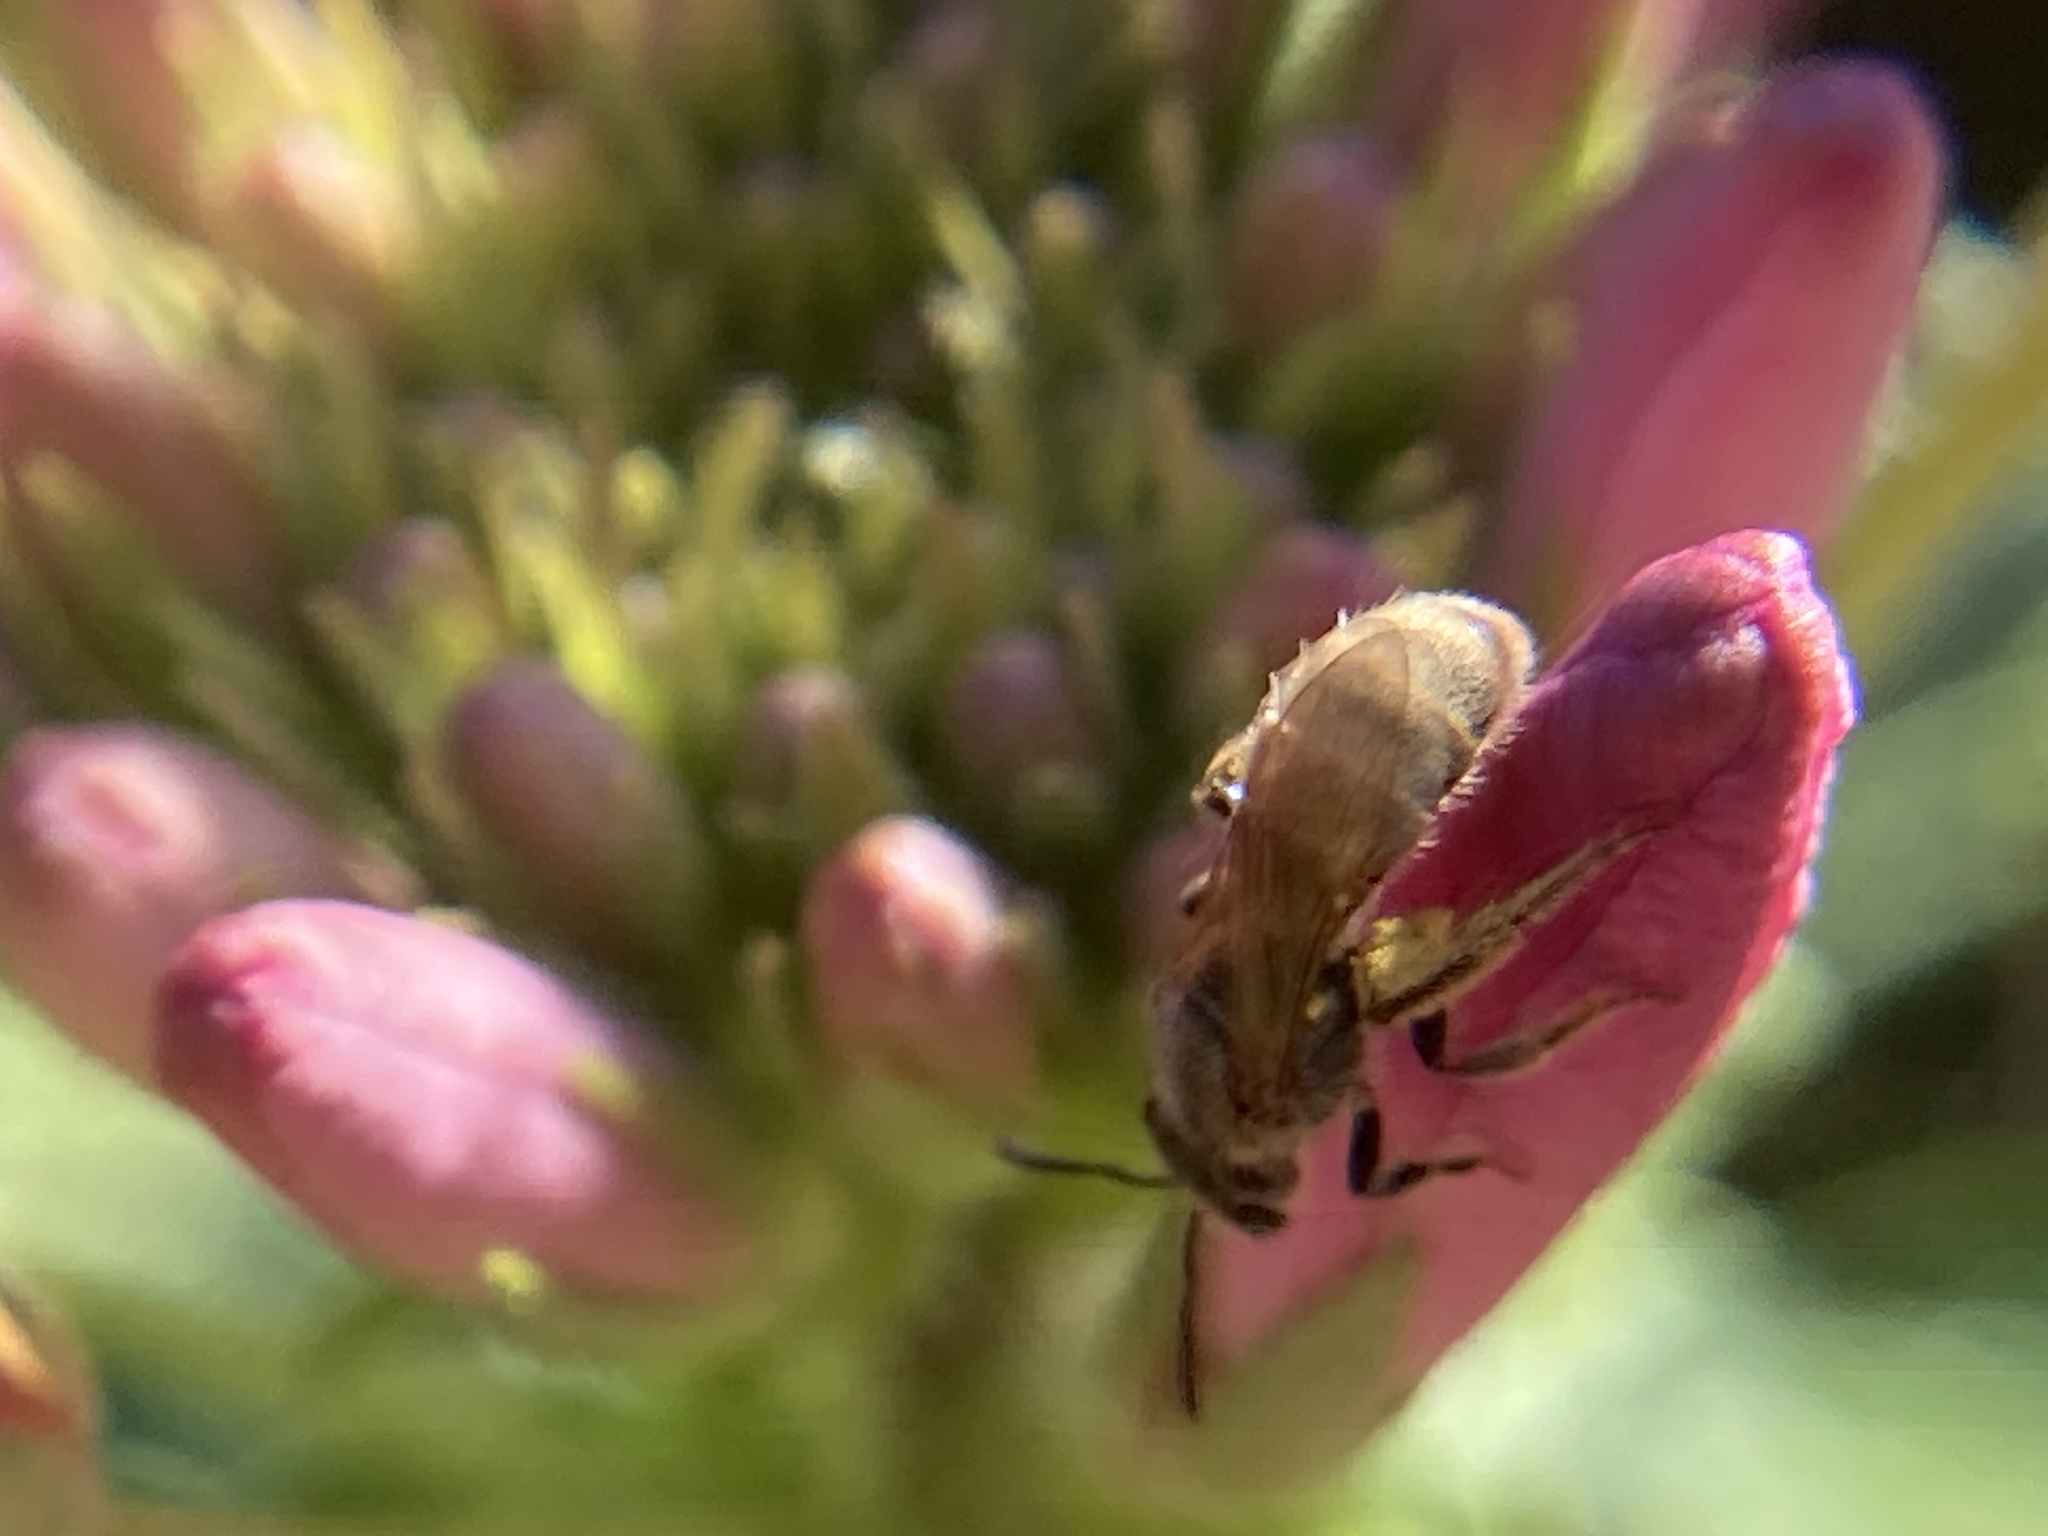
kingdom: Animalia
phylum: Arthropoda
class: Insecta
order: Hymenoptera
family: Halictidae
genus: Lasioglossum
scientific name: Lasioglossum
